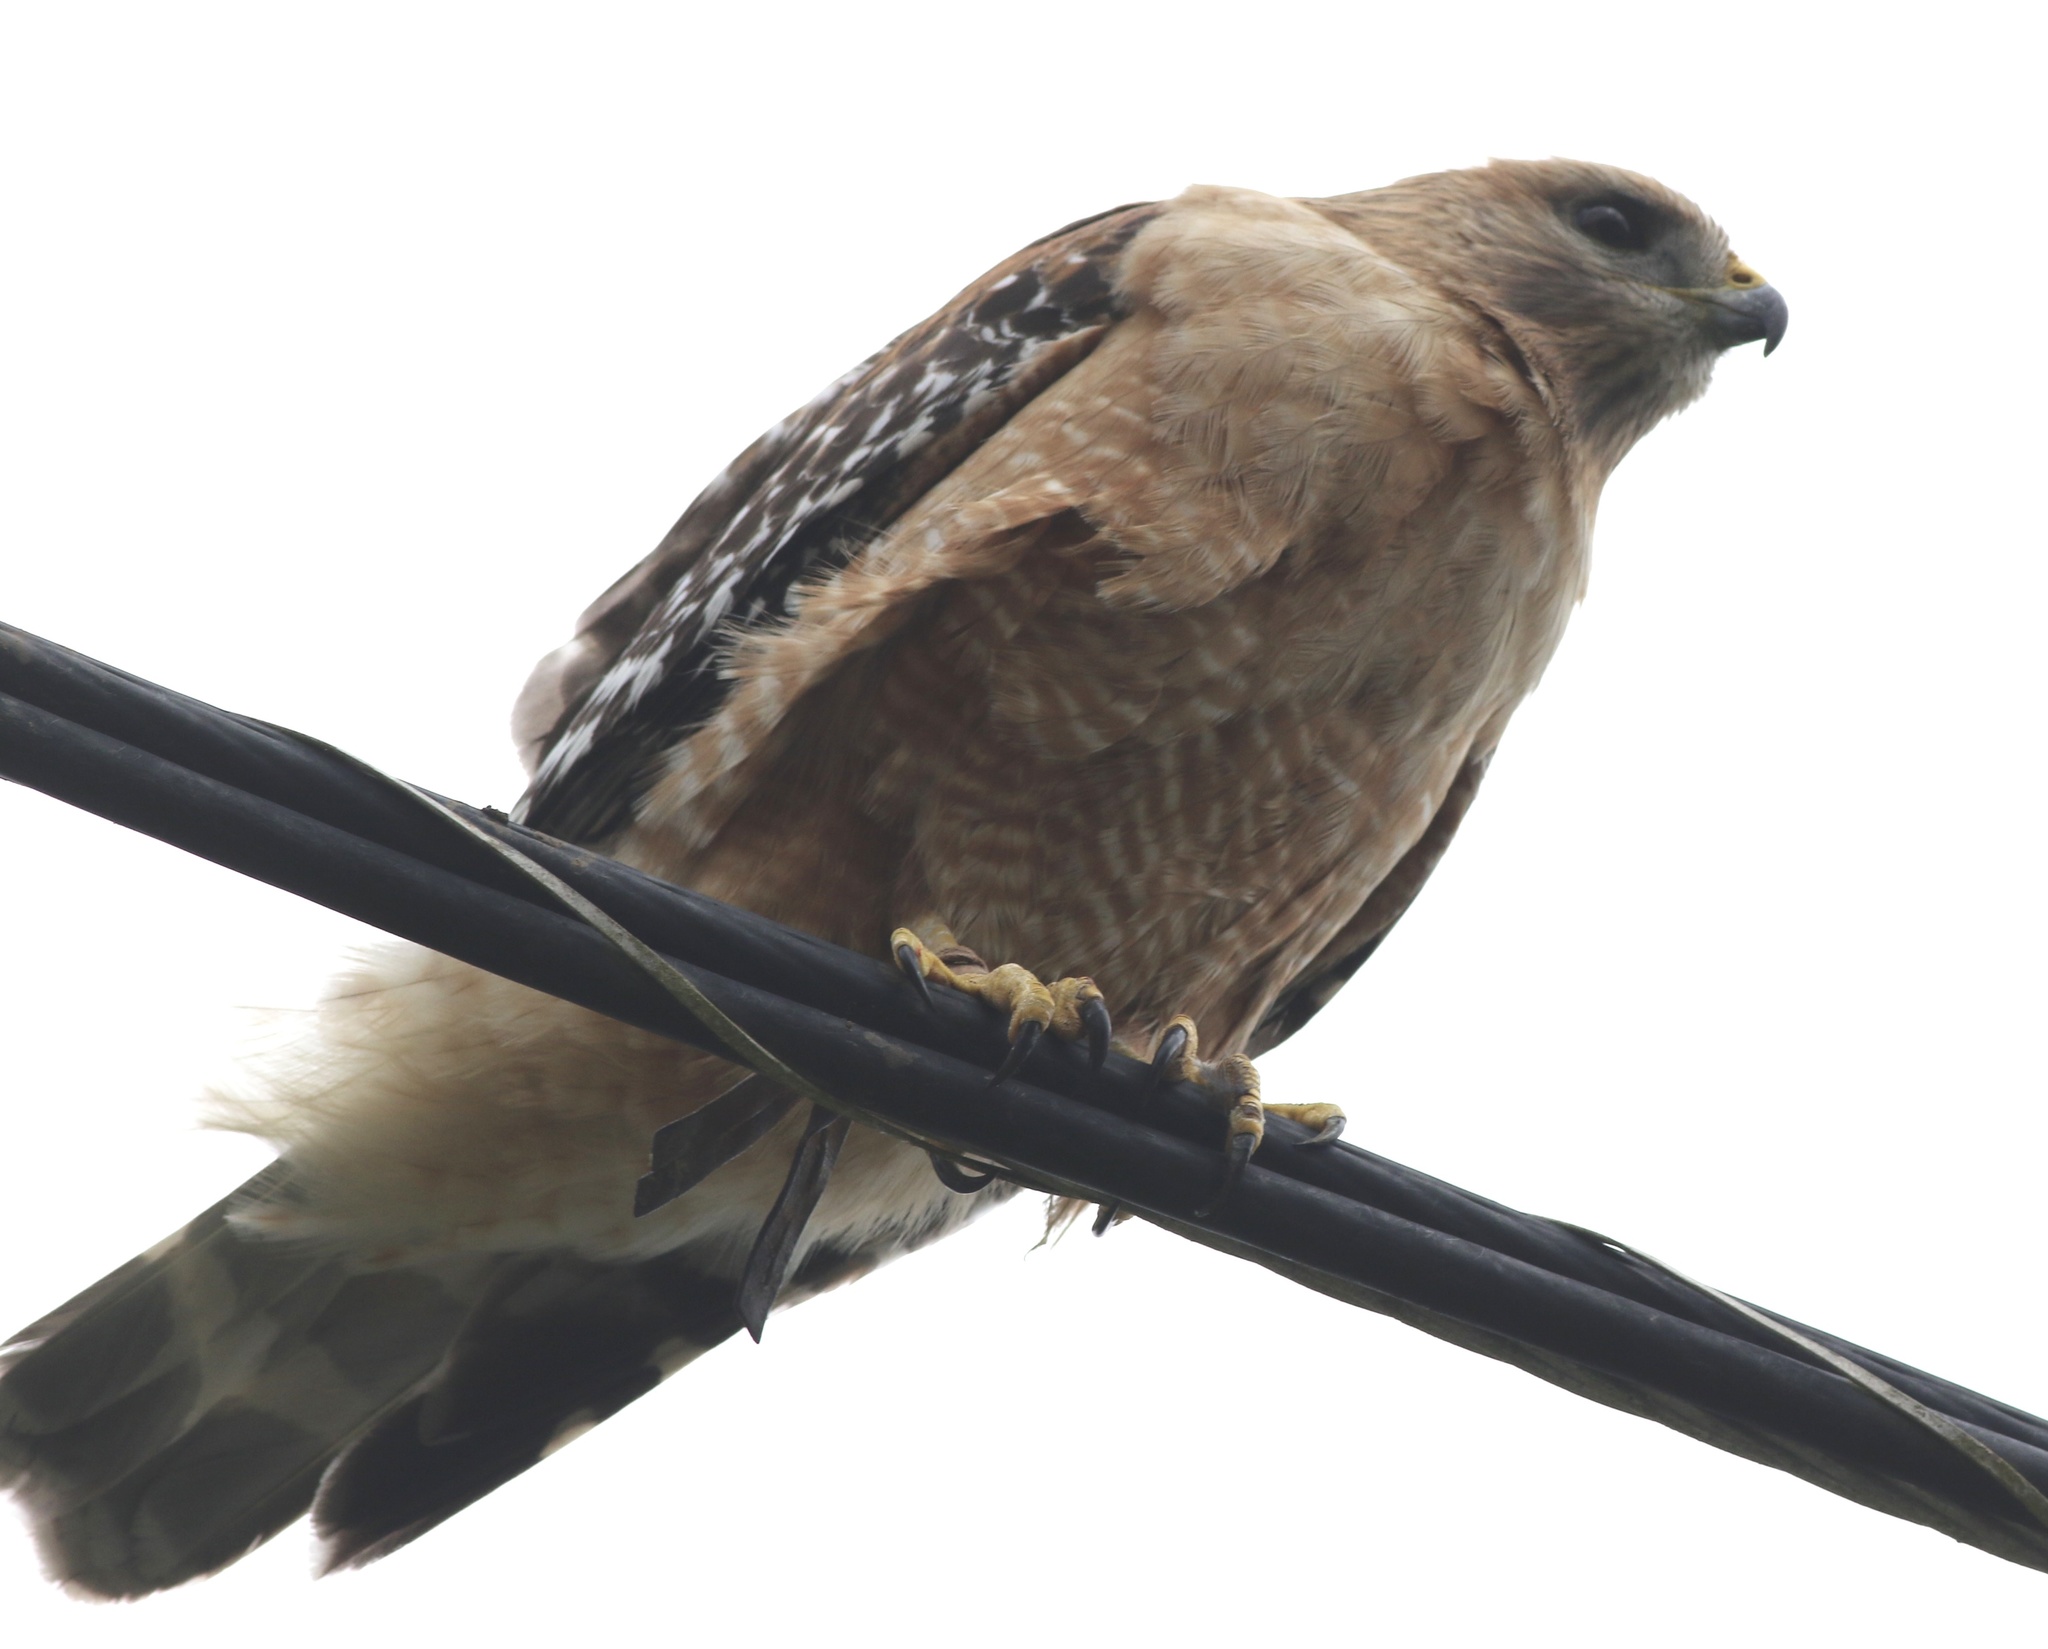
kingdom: Animalia
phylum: Chordata
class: Aves
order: Accipitriformes
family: Accipitridae
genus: Buteo
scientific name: Buteo lineatus
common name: Red-shouldered hawk
